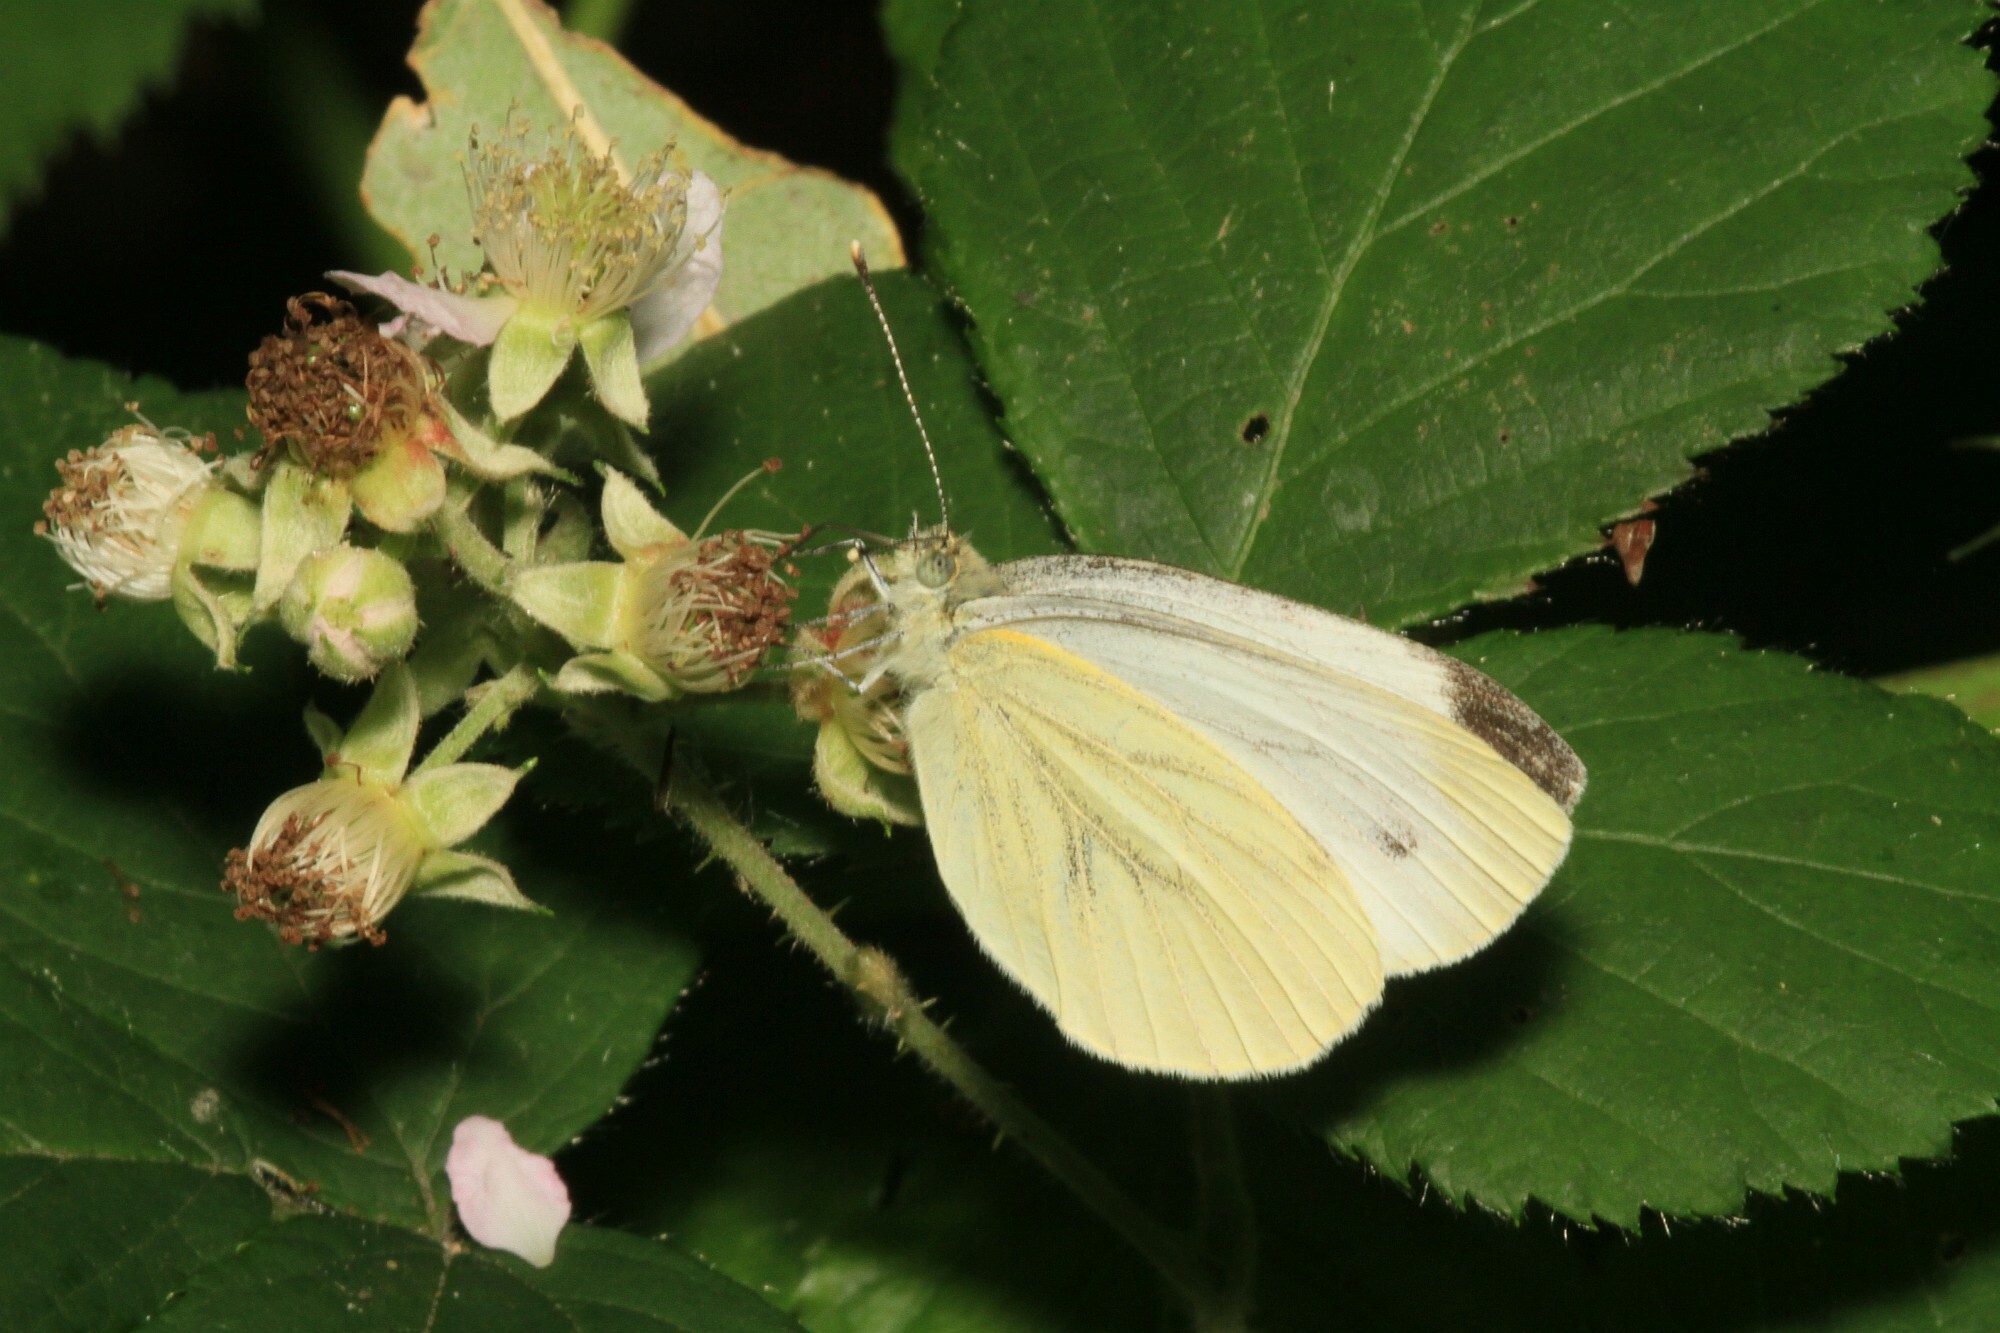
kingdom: Animalia
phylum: Arthropoda
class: Insecta
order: Lepidoptera
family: Pieridae
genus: Pieris
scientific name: Pieris napi
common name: Green-veined white
